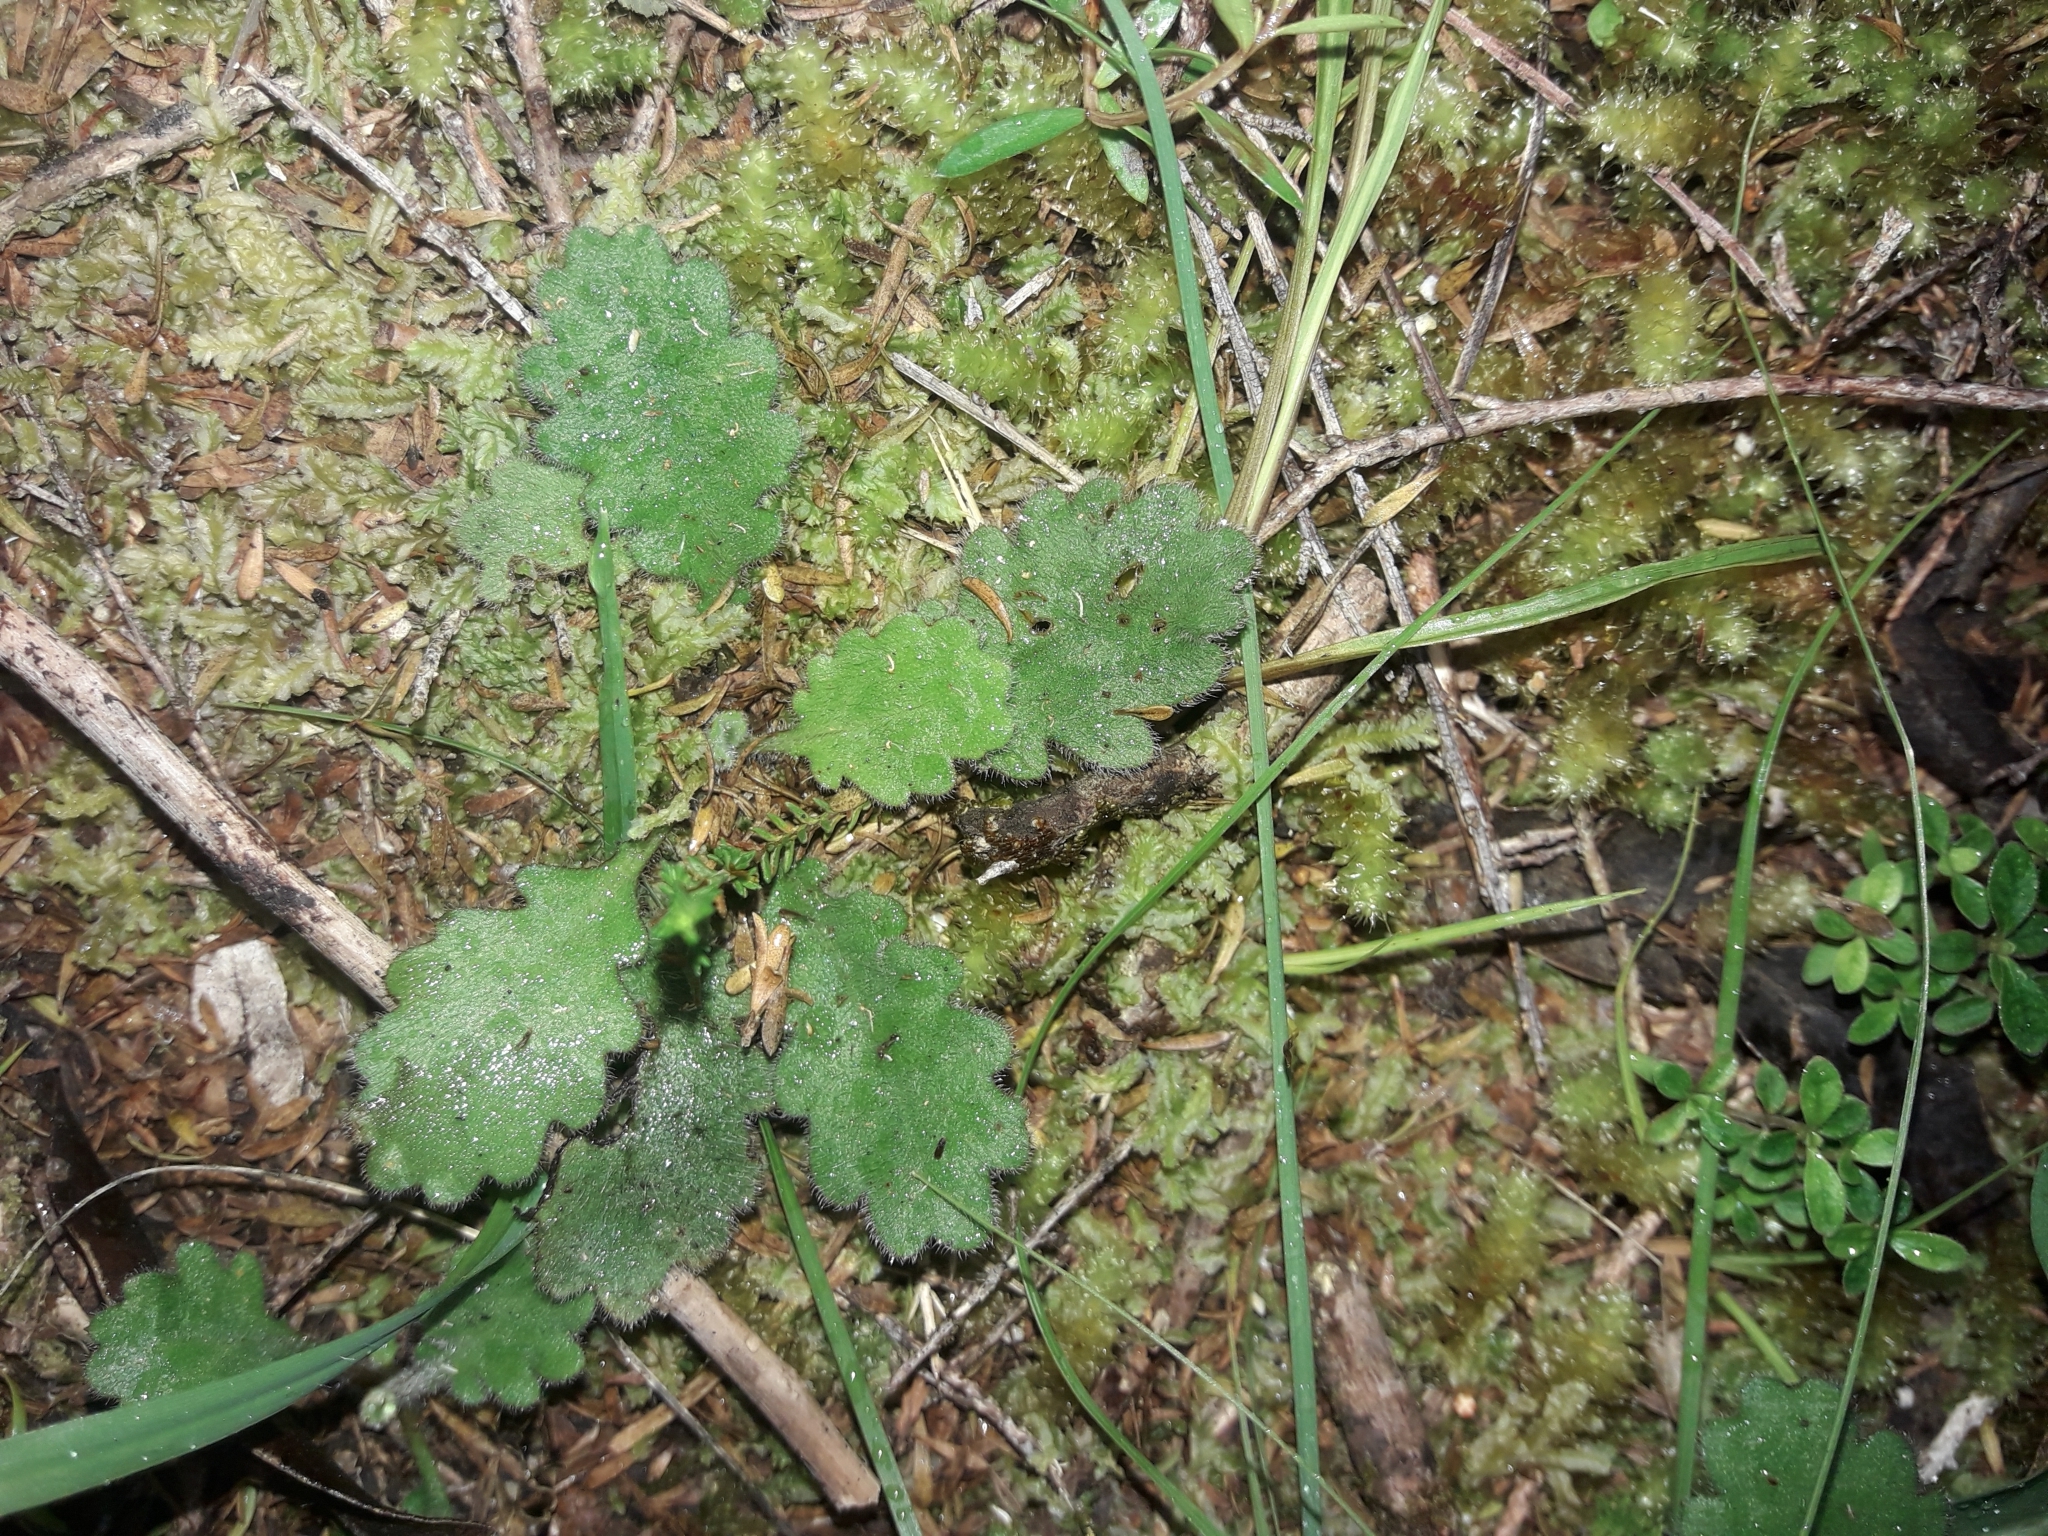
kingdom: Plantae
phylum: Tracheophyta
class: Magnoliopsida
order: Asterales
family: Asteraceae
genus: Lagenophora
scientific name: Lagenophora pinnatifida
